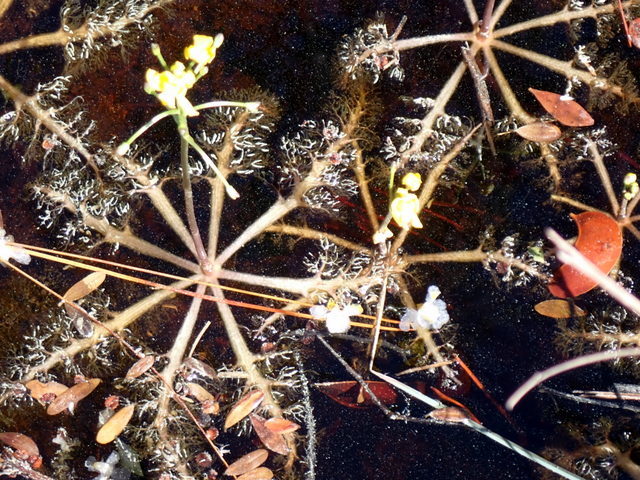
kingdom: Plantae
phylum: Tracheophyta
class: Magnoliopsida
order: Lamiales
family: Lentibulariaceae
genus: Utricularia
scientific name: Utricularia inflata
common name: Floating bladderwort
